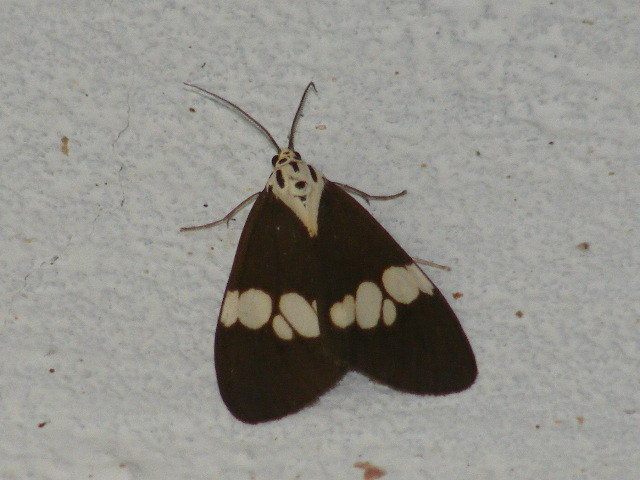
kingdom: Animalia
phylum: Arthropoda
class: Insecta
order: Lepidoptera
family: Erebidae
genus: Nyctemera
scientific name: Nyctemera lacticinia
